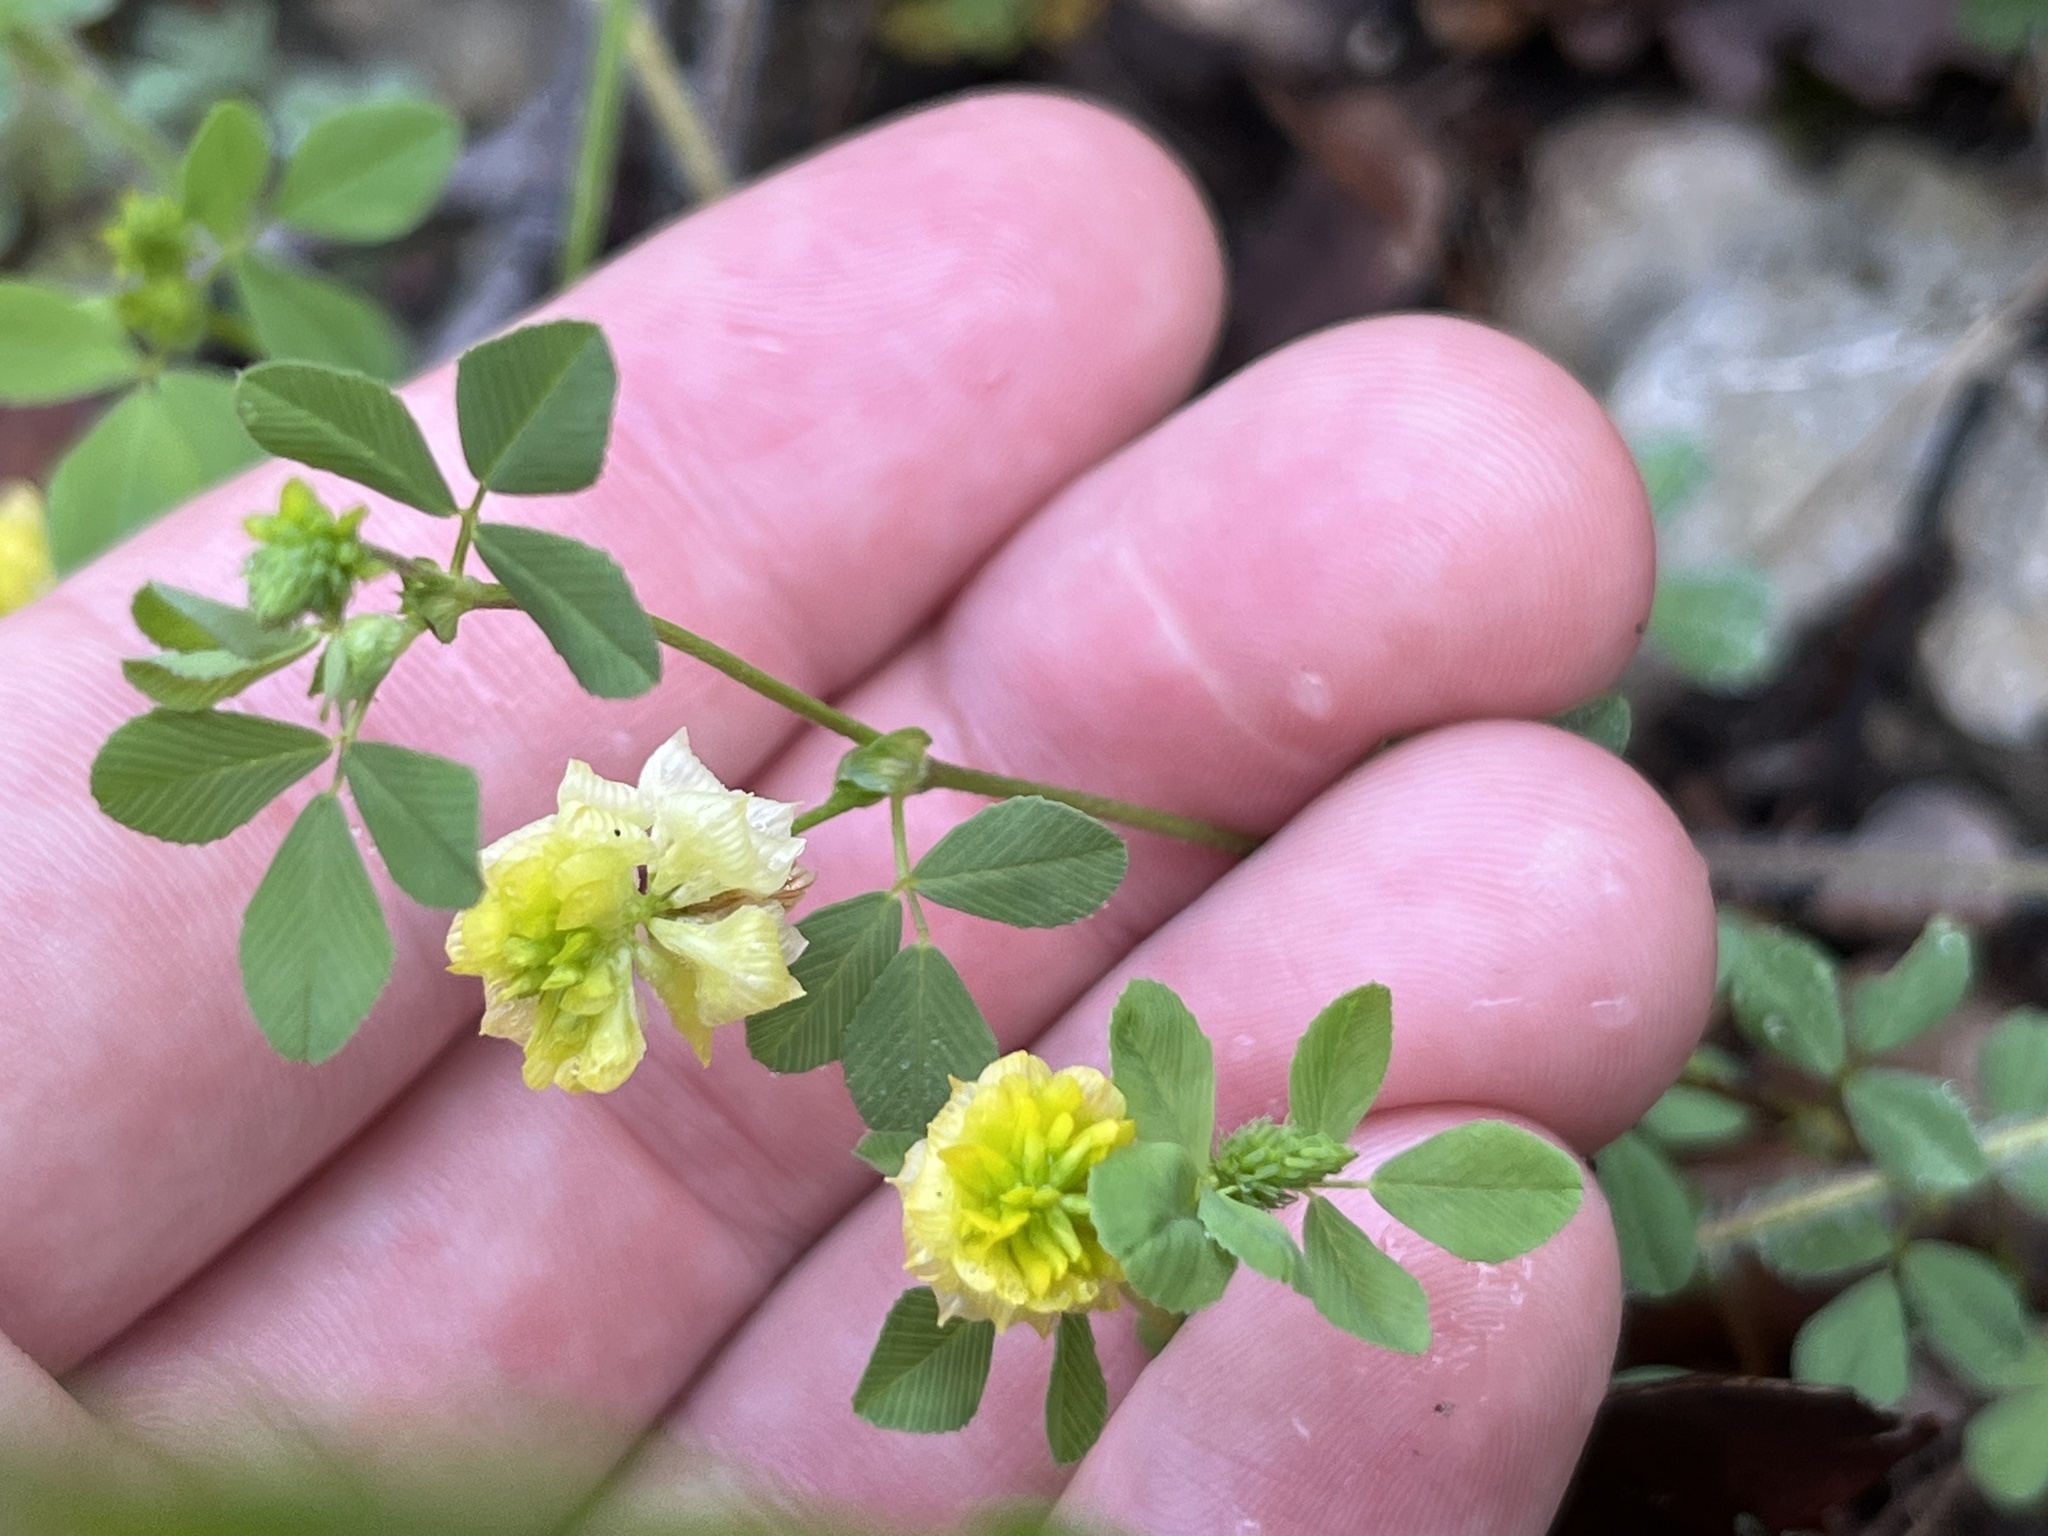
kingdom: Plantae
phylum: Tracheophyta
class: Magnoliopsida
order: Fabales
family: Fabaceae
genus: Trifolium
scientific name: Trifolium campestre
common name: Field clover
